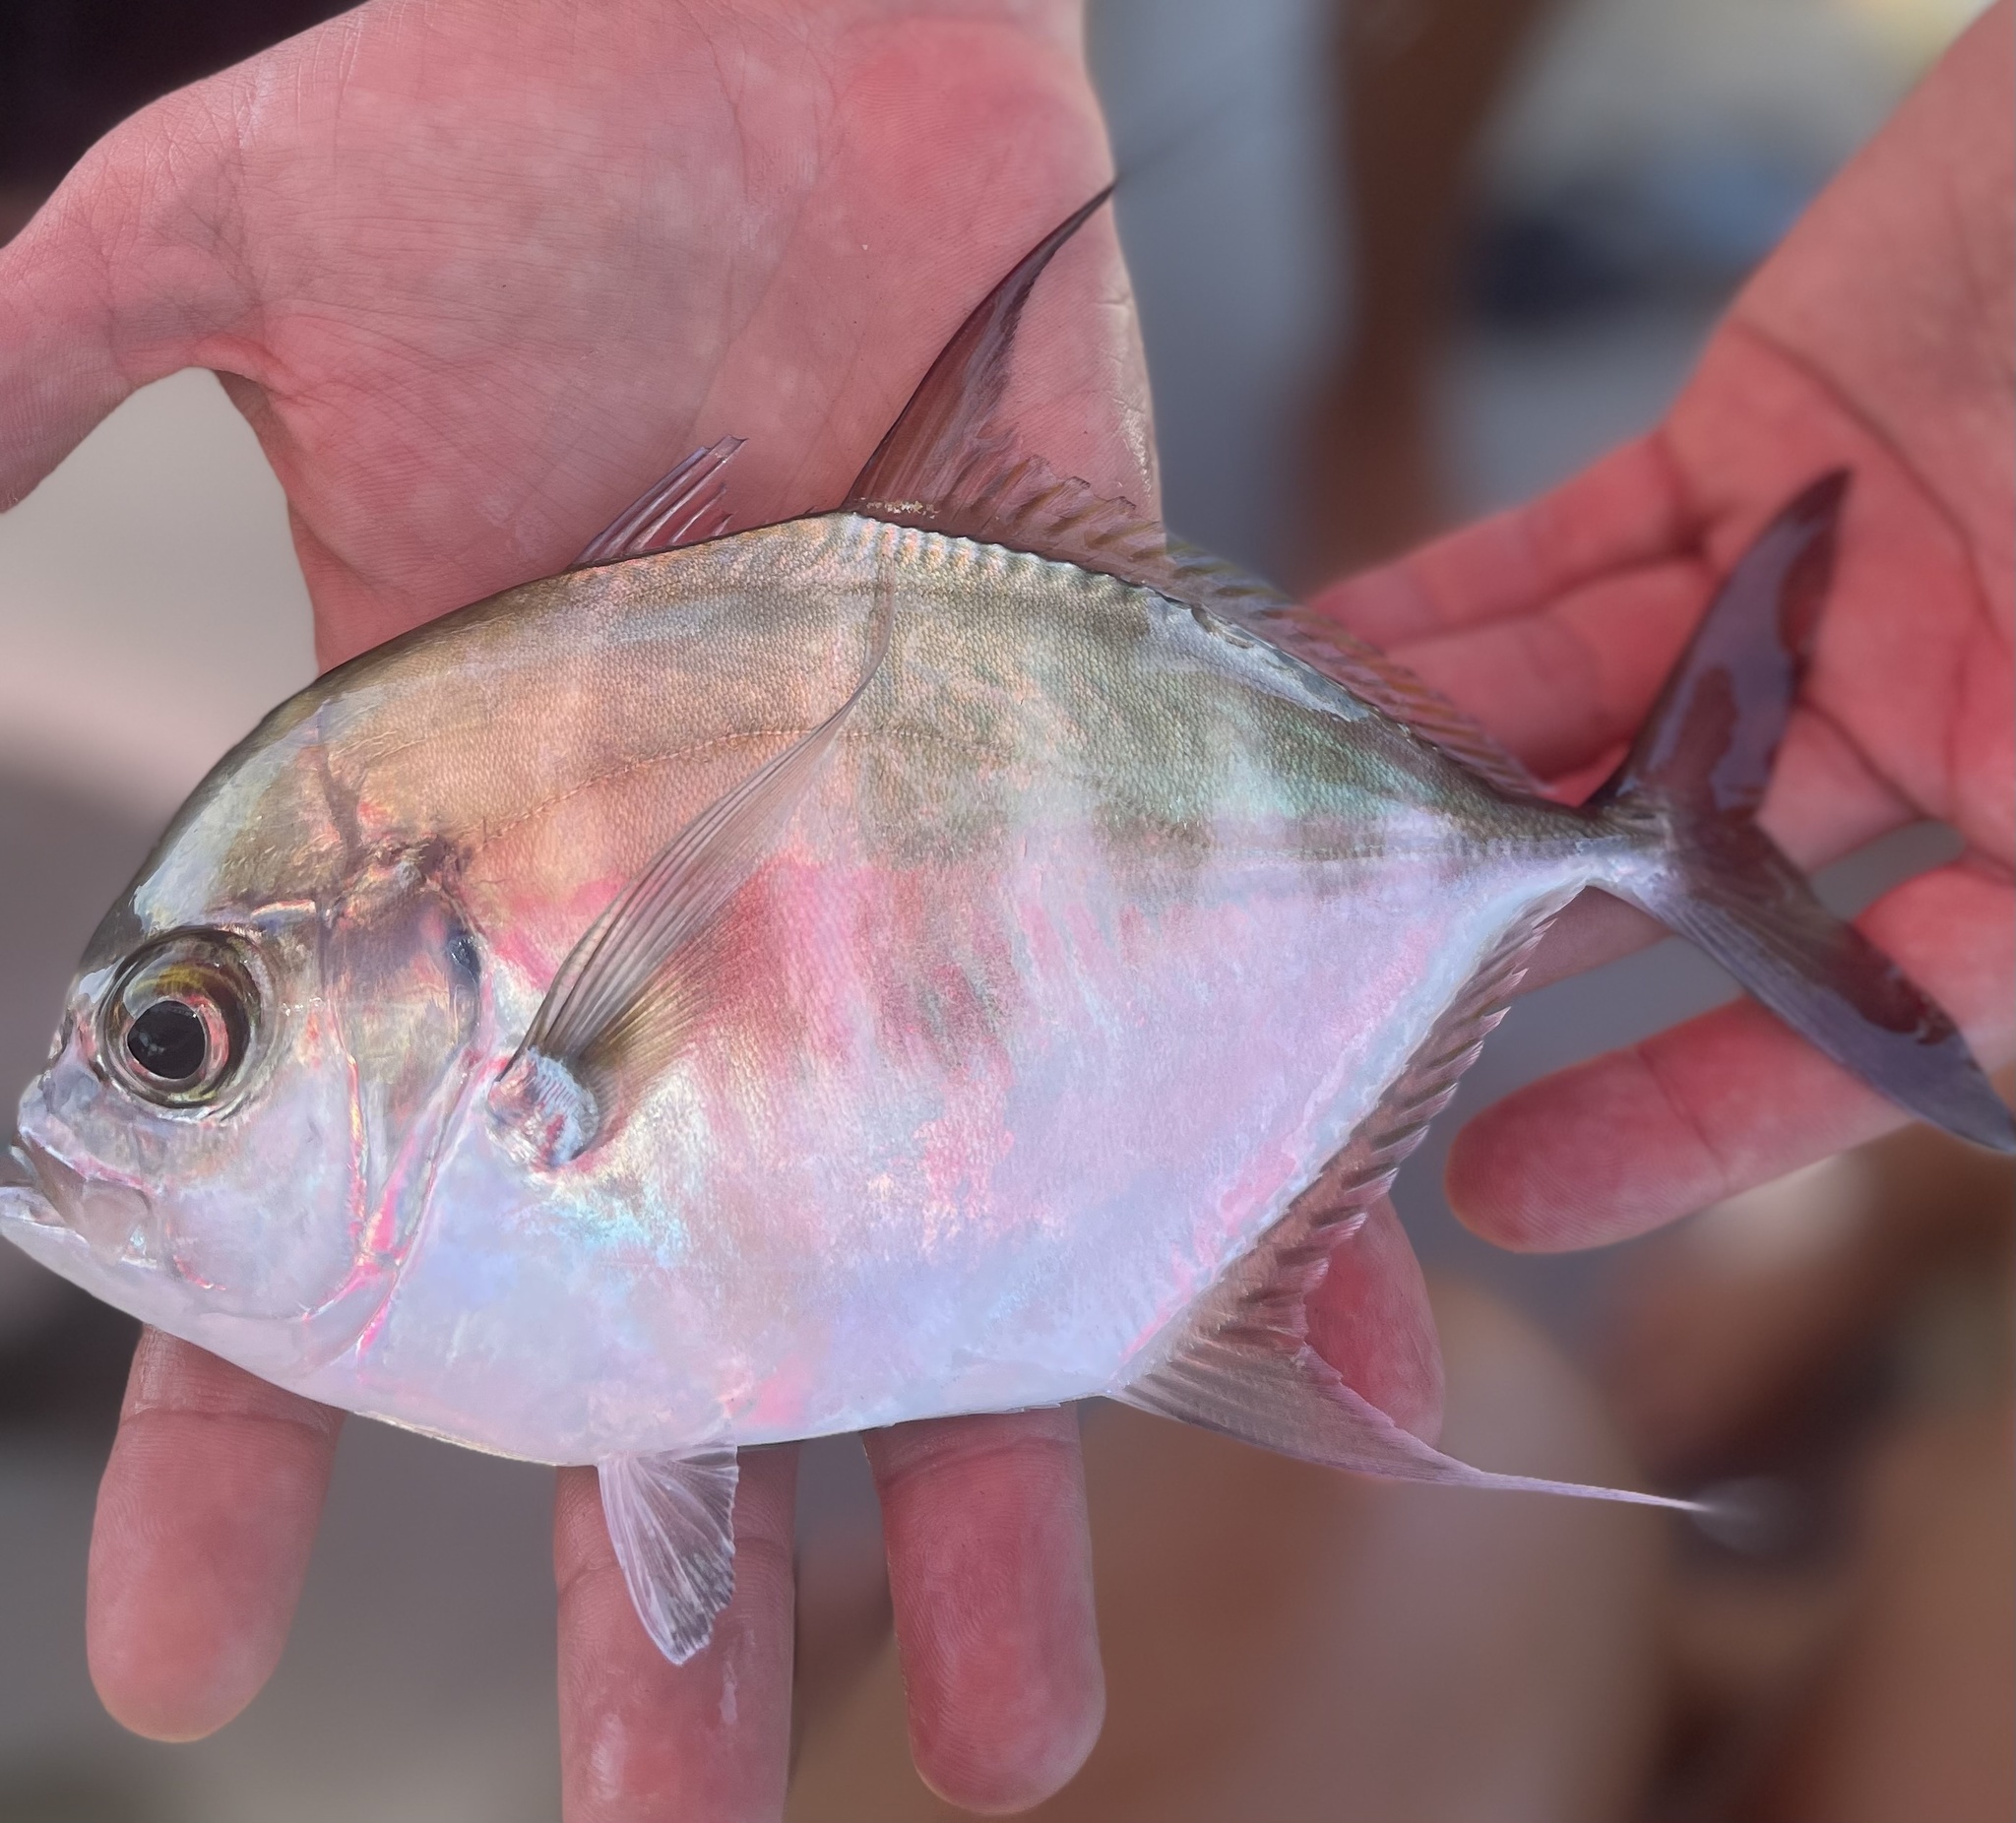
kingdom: Animalia
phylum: Chordata
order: Perciformes
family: Carangidae
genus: Atropus
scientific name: Atropus armatus
